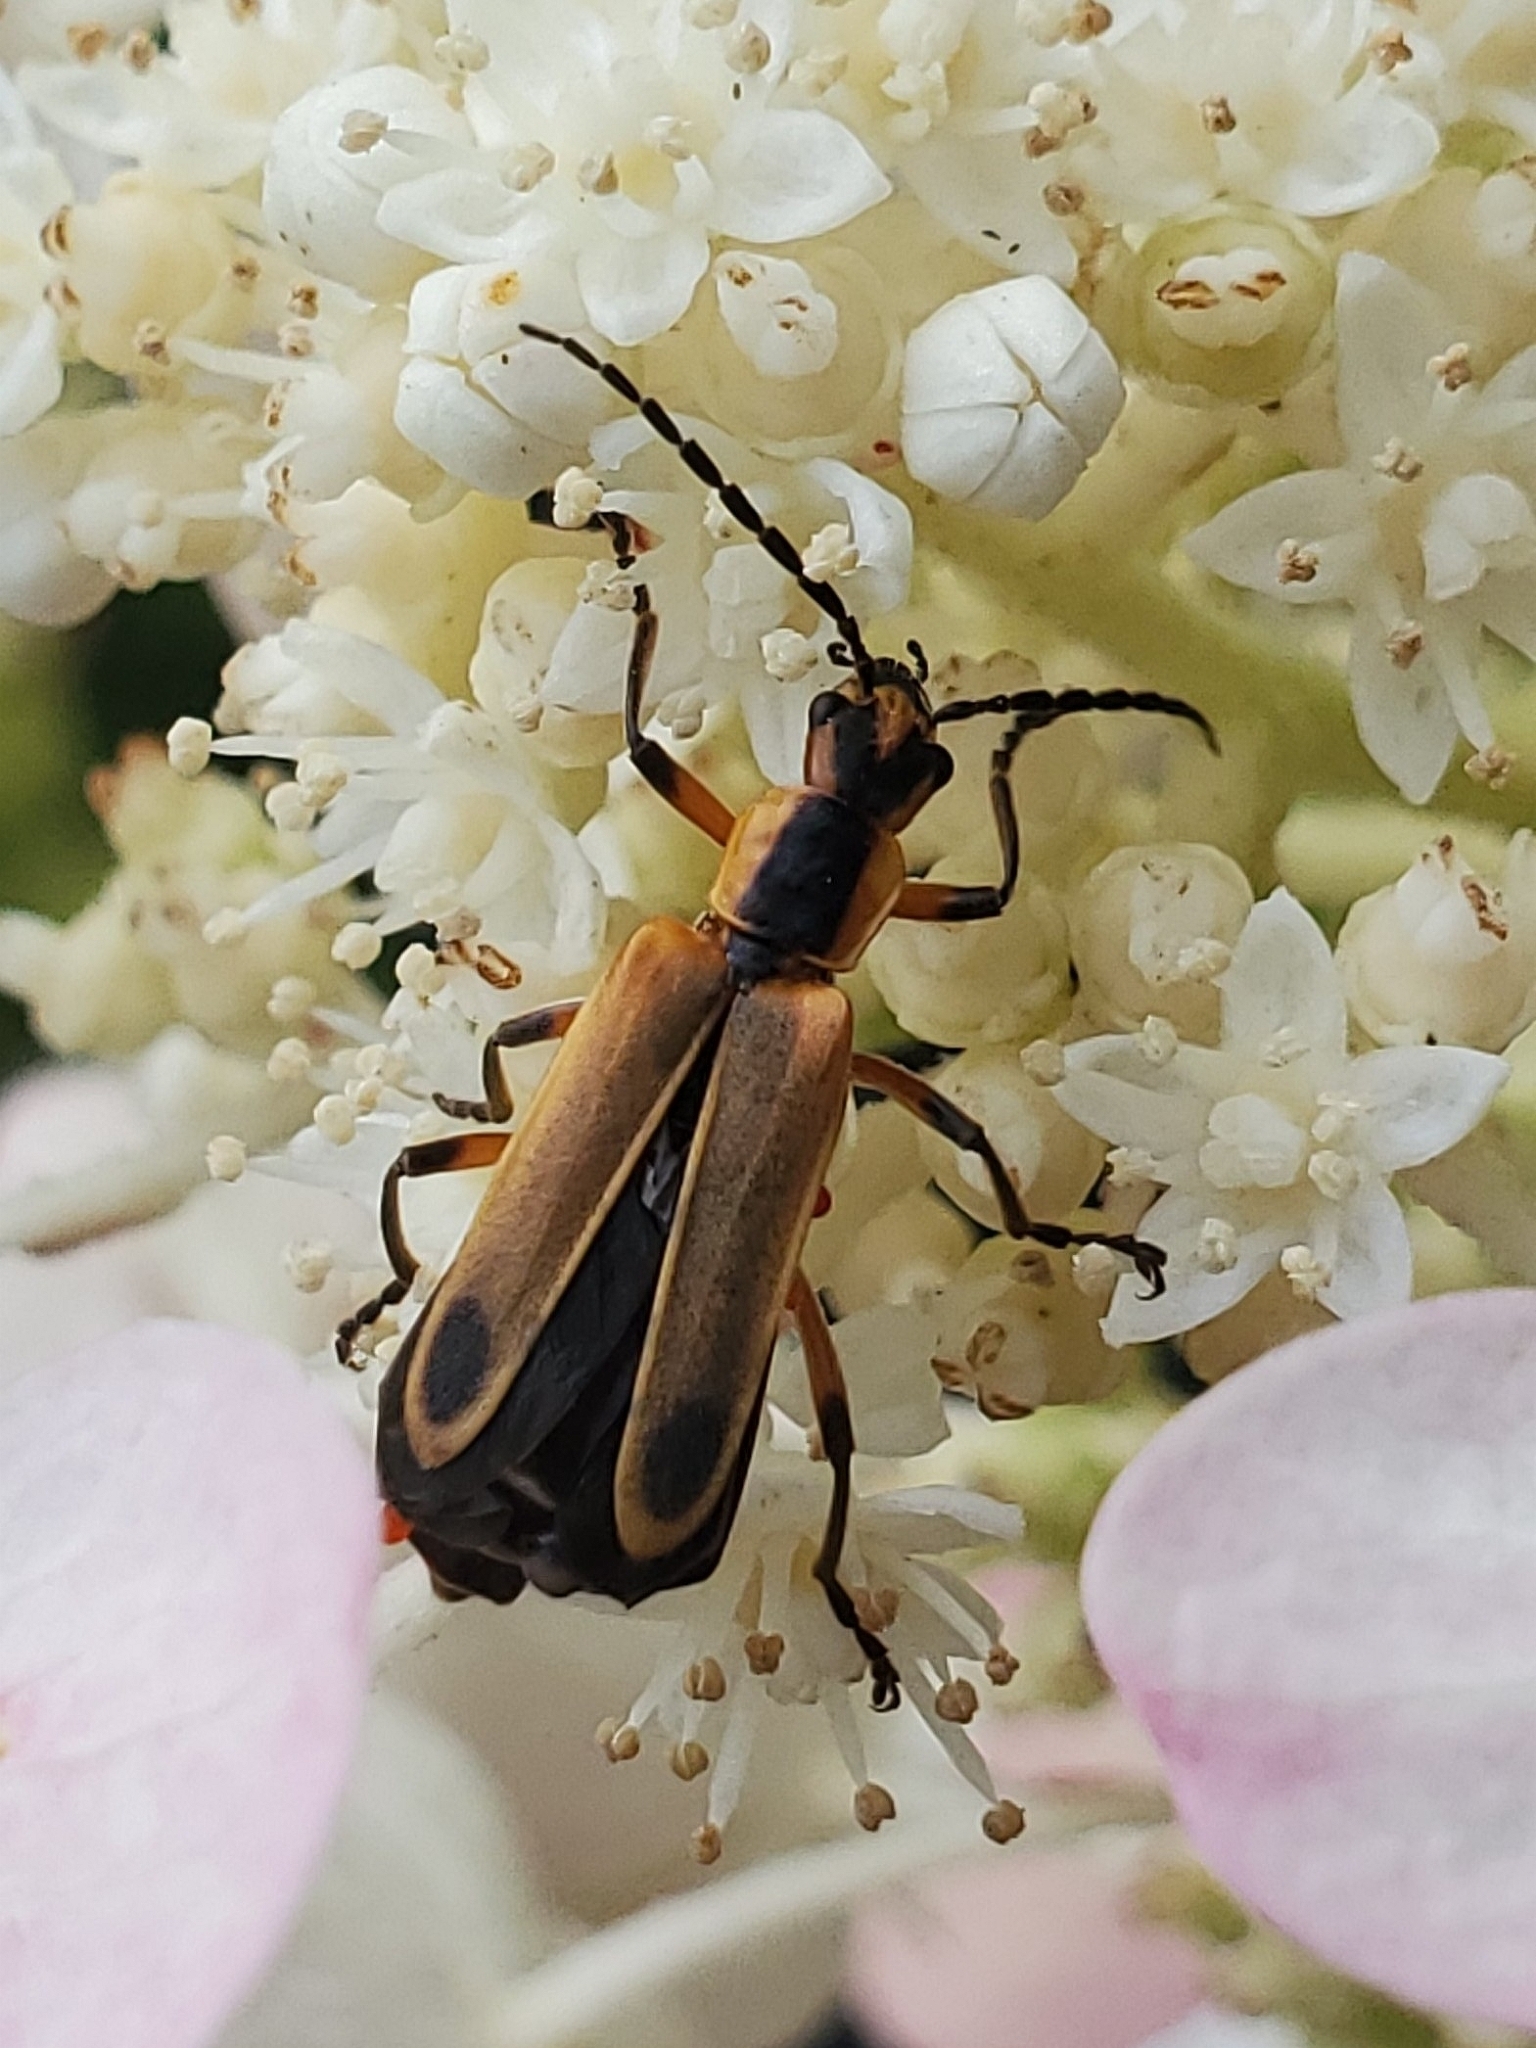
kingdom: Animalia
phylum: Arthropoda
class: Insecta
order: Coleoptera
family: Cantharidae
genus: Chauliognathus
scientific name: Chauliognathus marginatus
